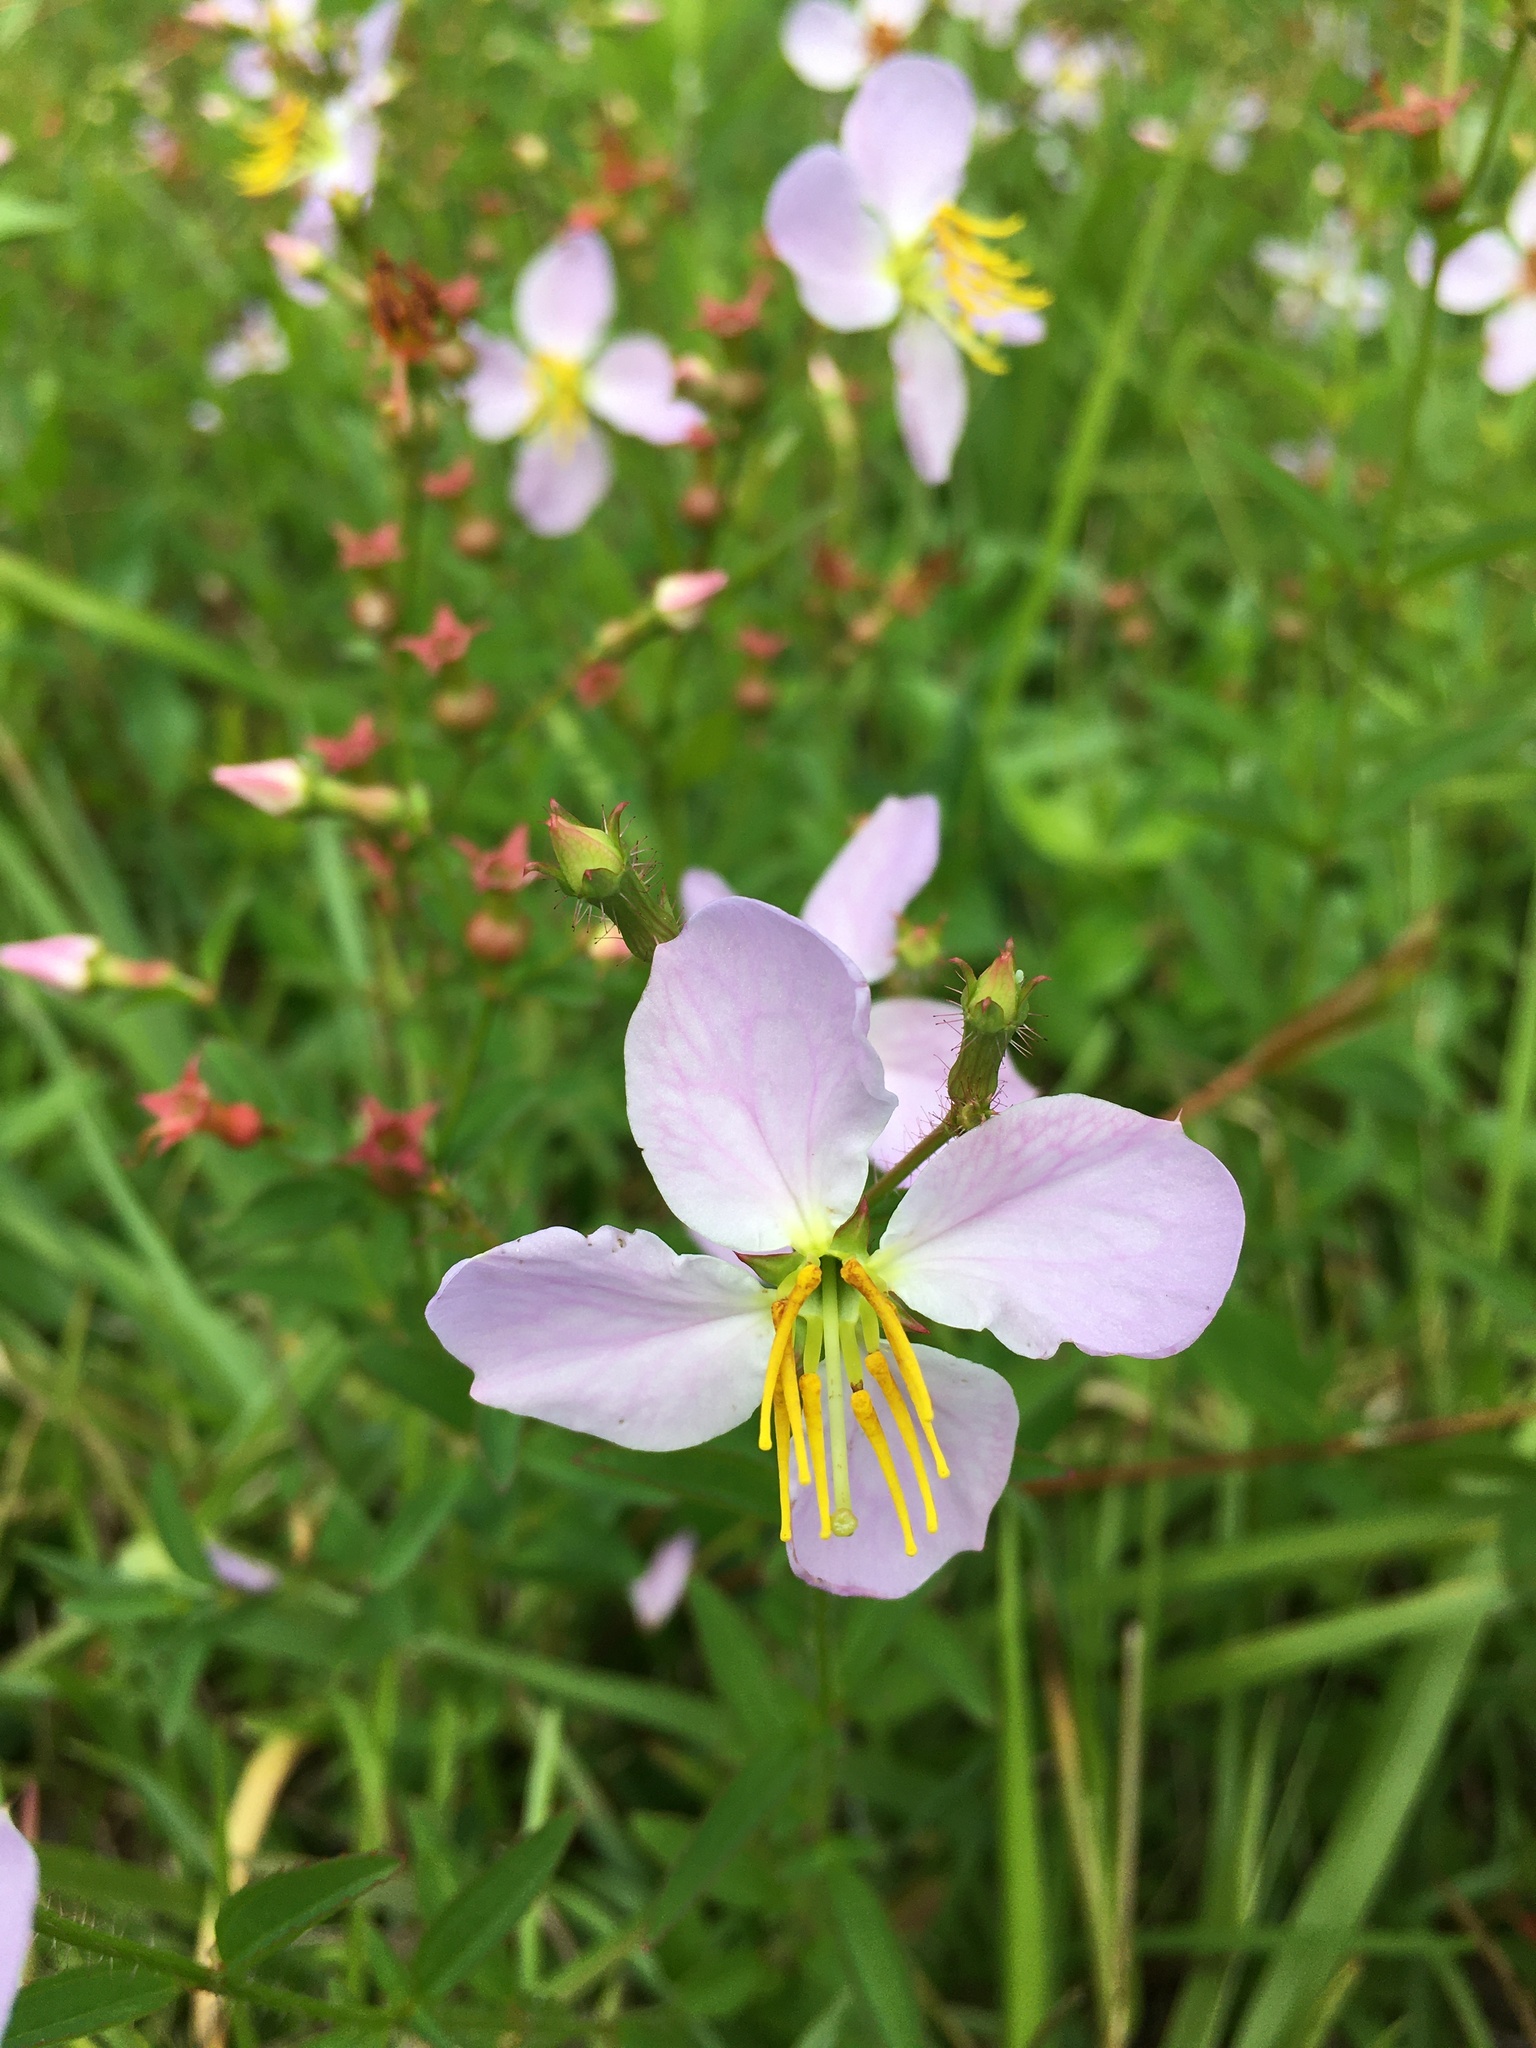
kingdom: Plantae
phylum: Tracheophyta
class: Magnoliopsida
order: Myrtales
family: Melastomataceae
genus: Rhexia
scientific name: Rhexia mariana
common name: Dull meadow-pitcher
